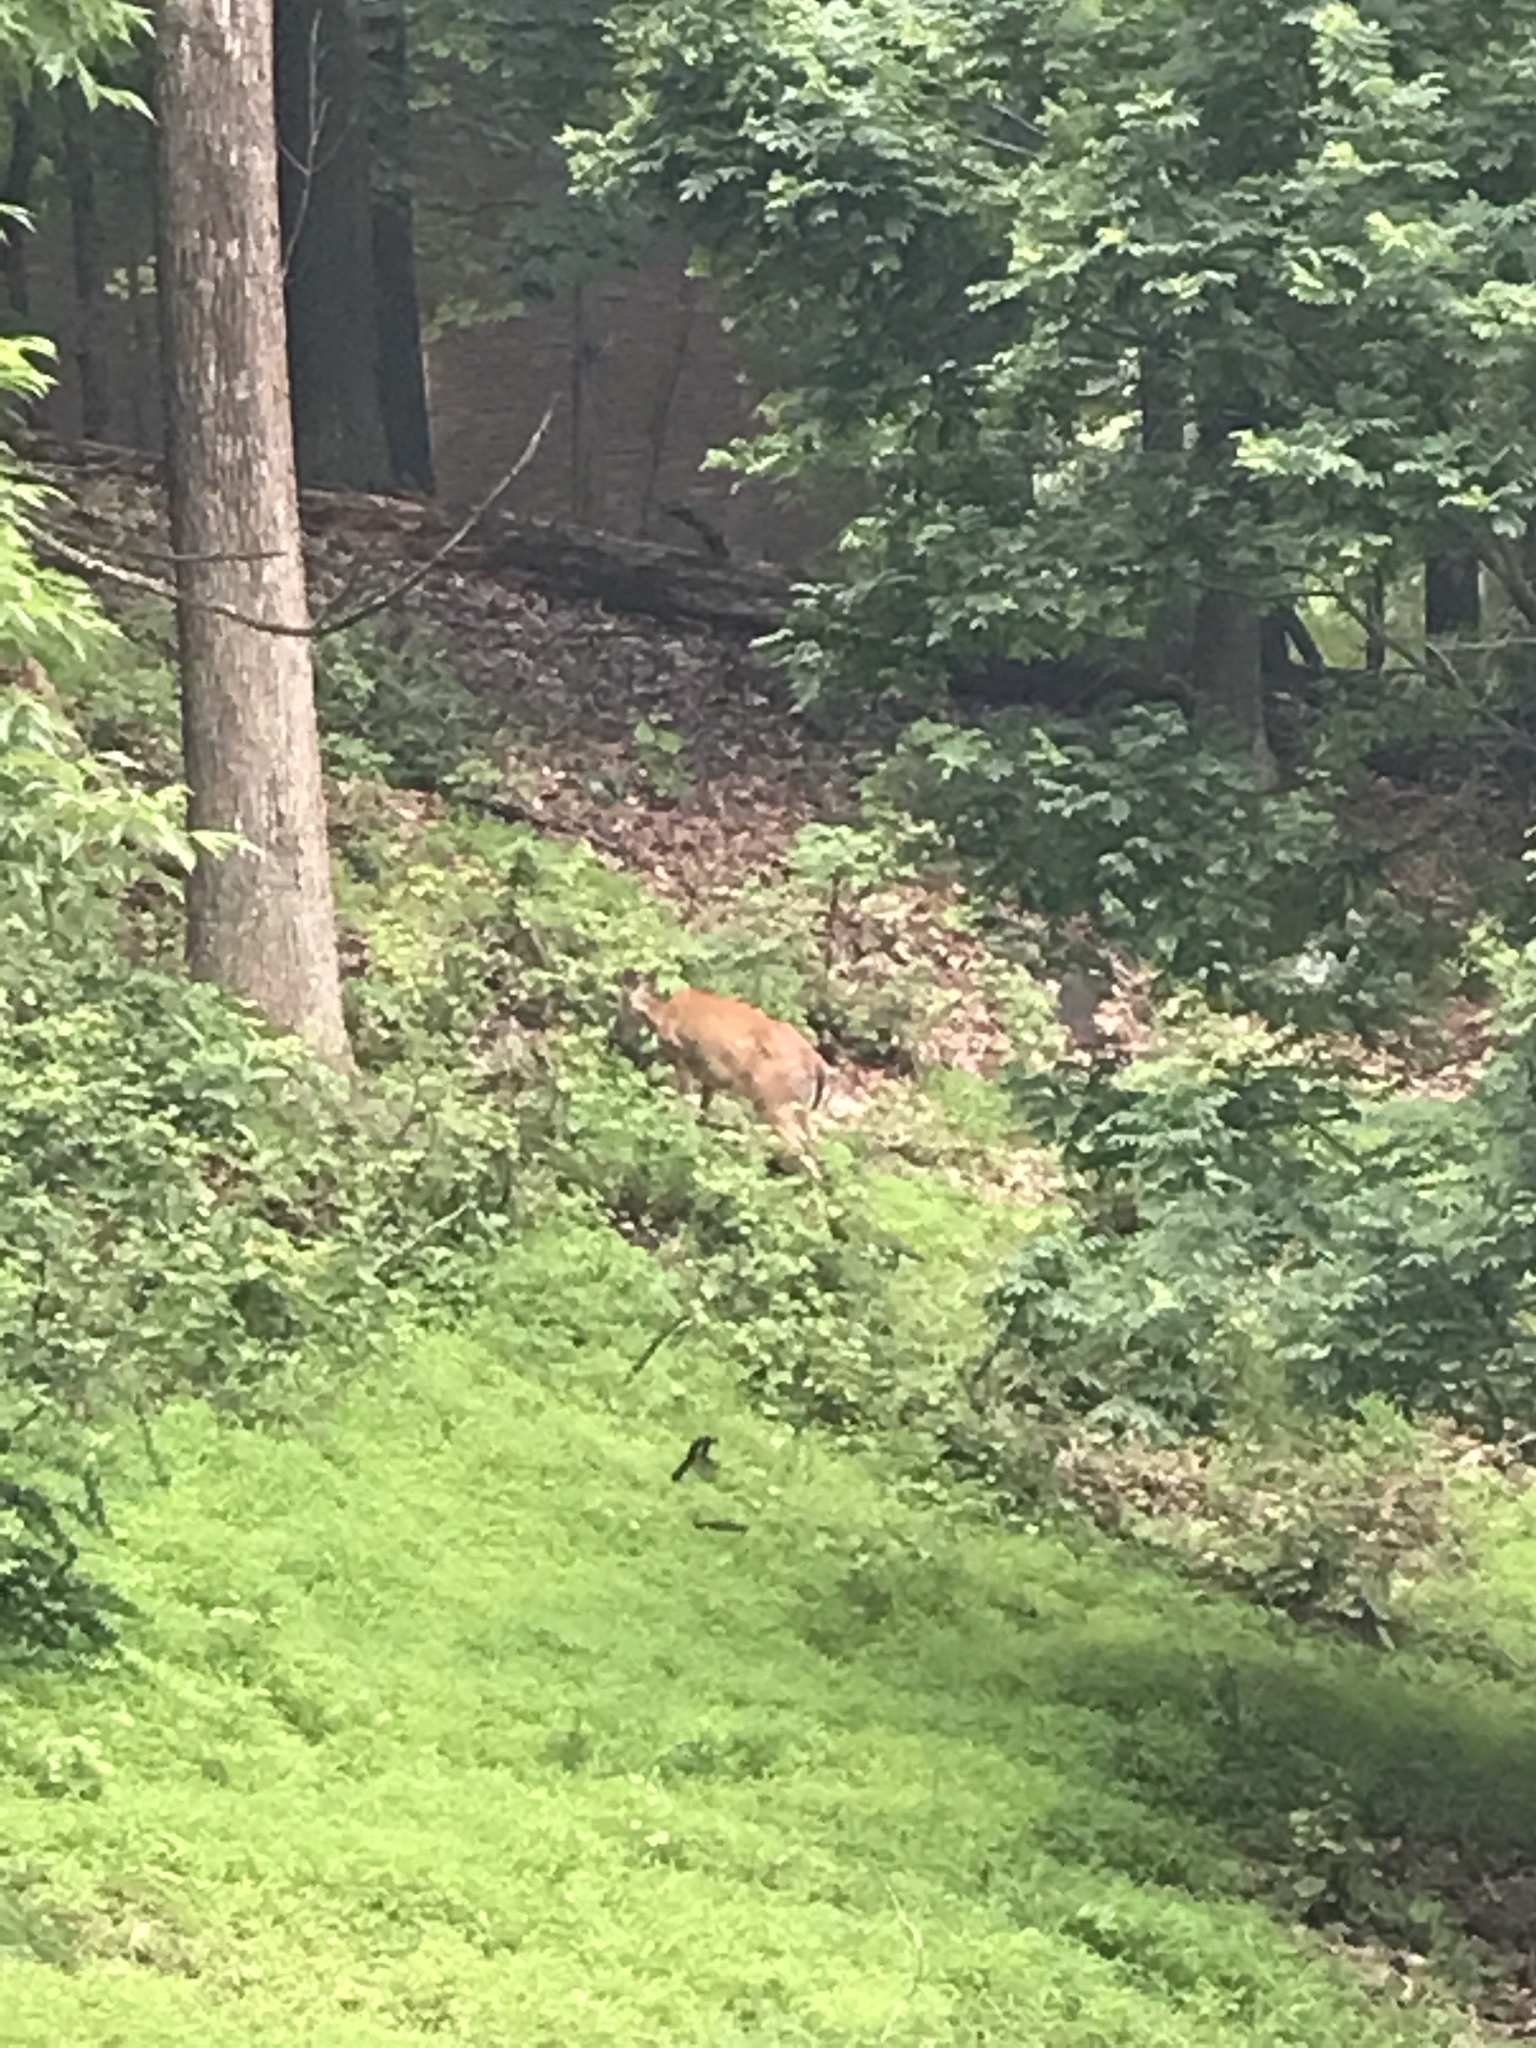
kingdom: Animalia
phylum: Chordata
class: Mammalia
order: Artiodactyla
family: Cervidae
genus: Odocoileus
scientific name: Odocoileus virginianus
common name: White-tailed deer
